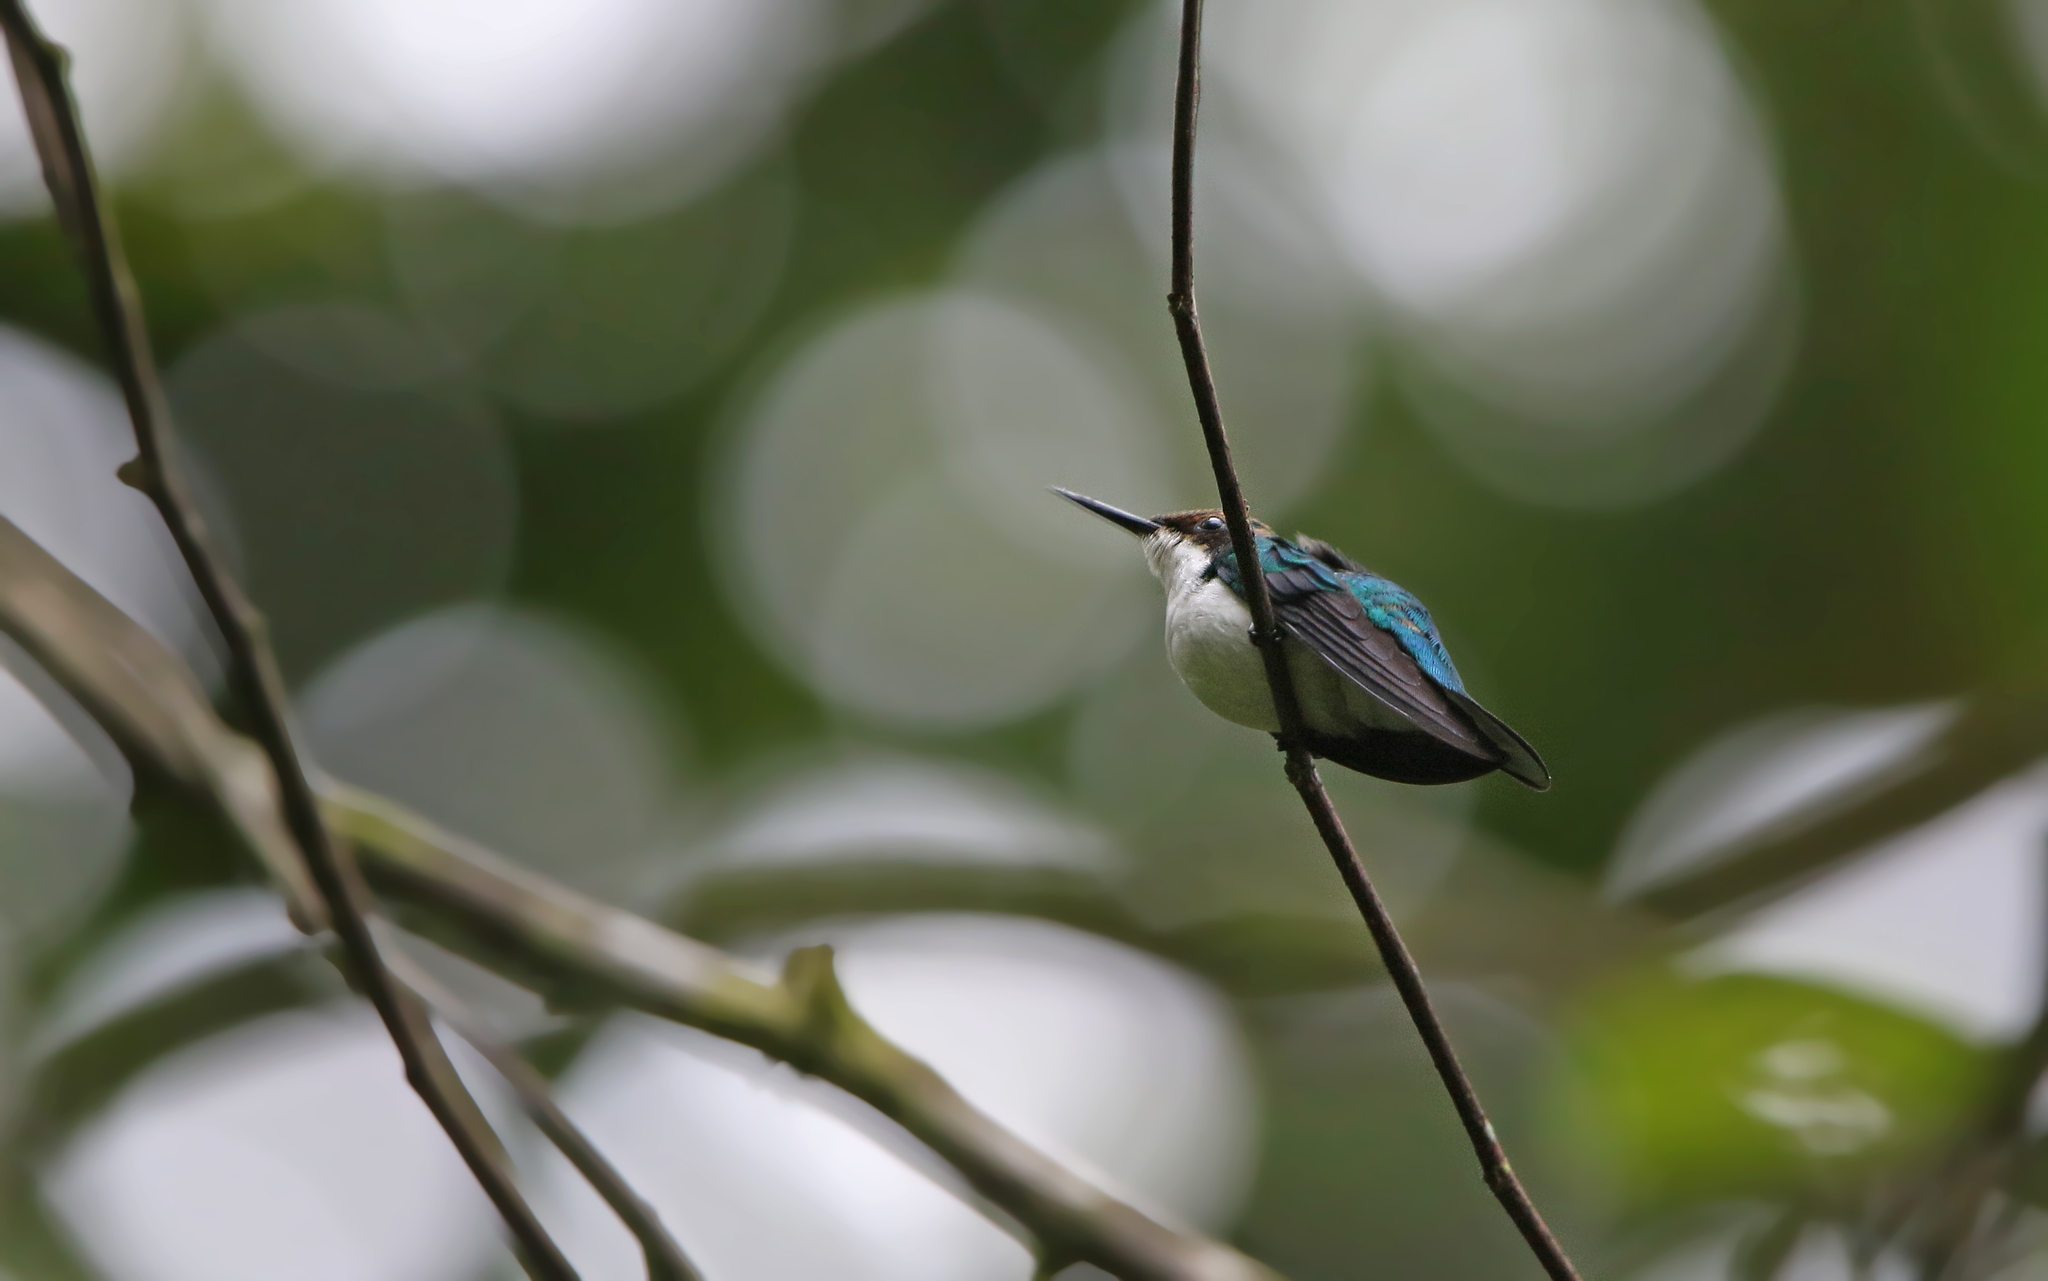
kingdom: Animalia
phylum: Chordata
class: Aves
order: Apodiformes
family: Trochilidae
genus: Heliothryx
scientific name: Heliothryx barroti
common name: Purple-crowned fairy
